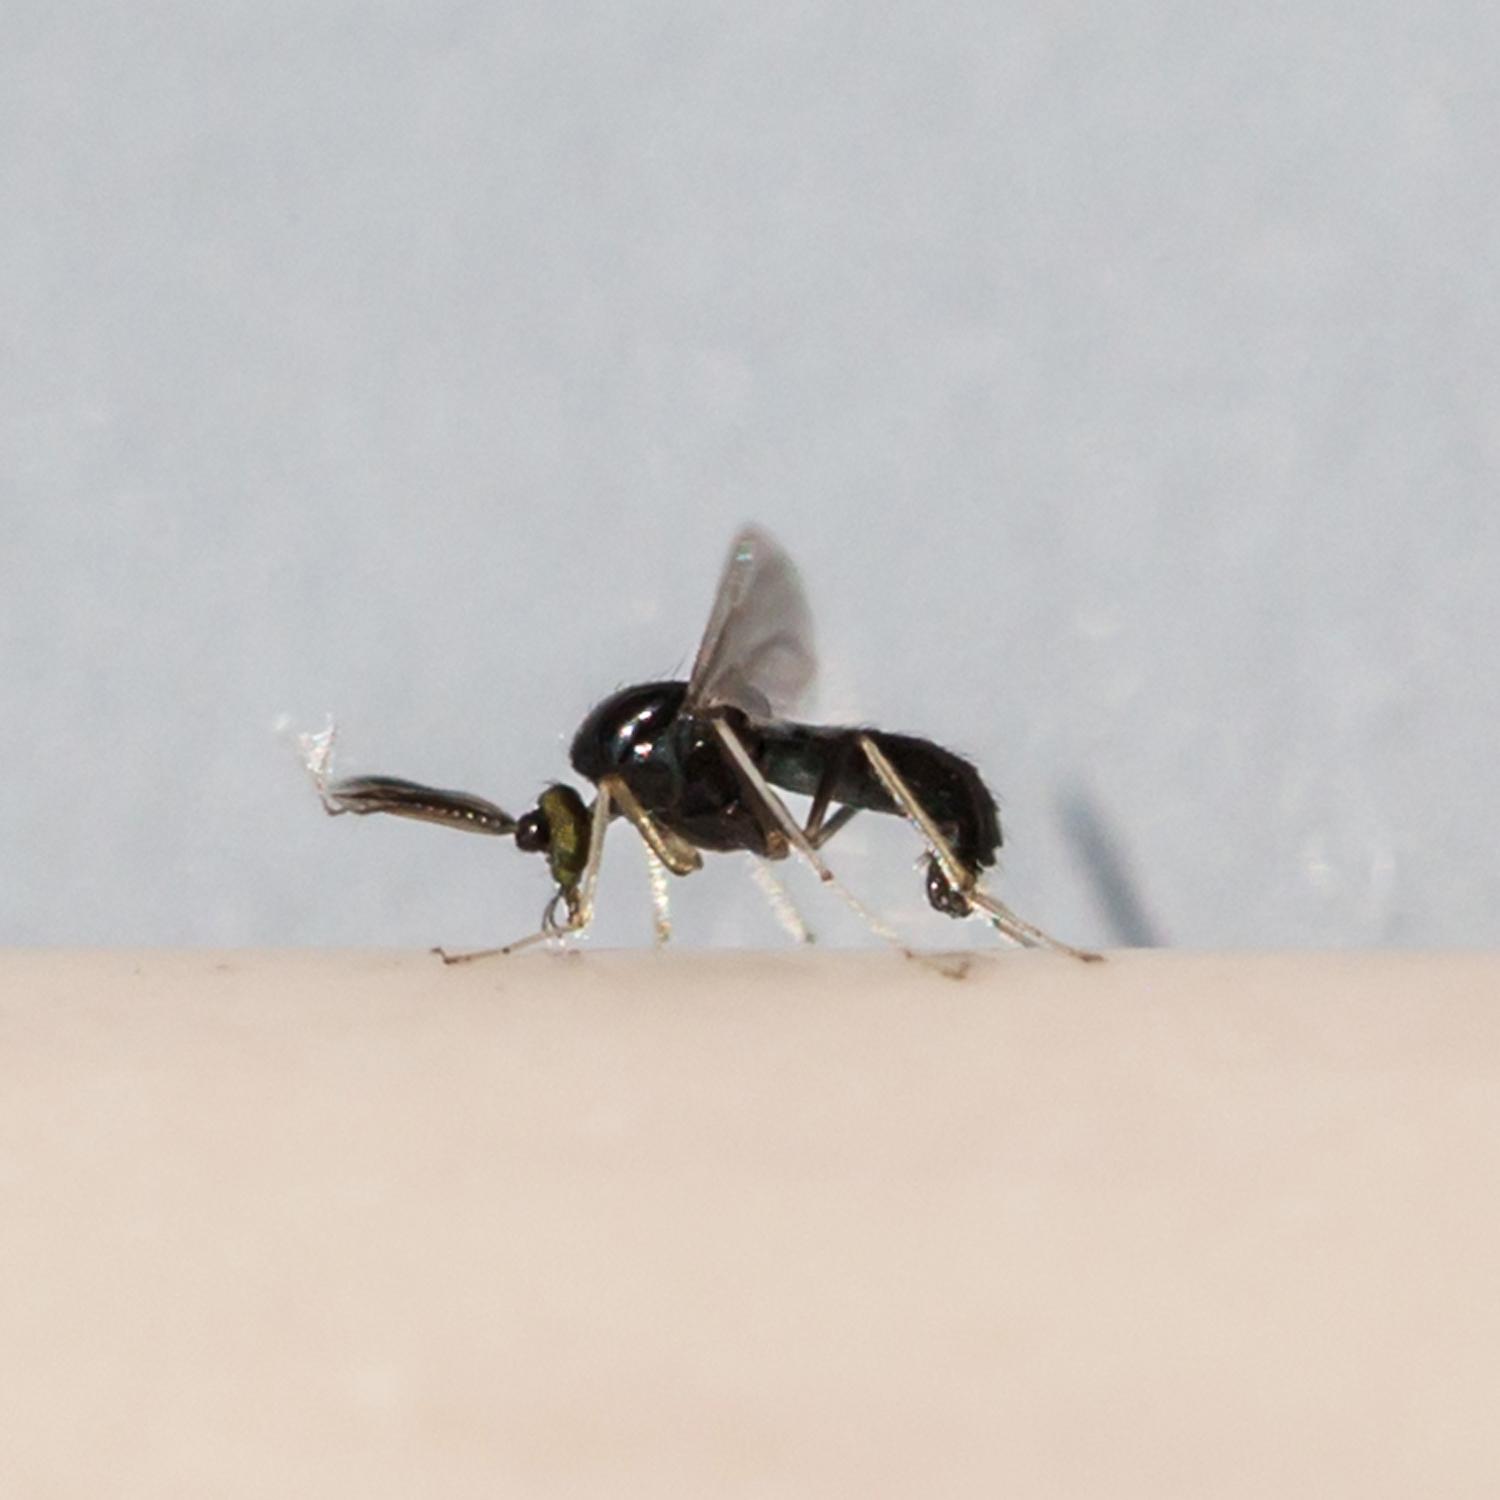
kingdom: Animalia
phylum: Arthropoda
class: Insecta
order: Diptera
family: Ceratopogonidae
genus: Stilobezzia
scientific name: Stilobezzia antennalis
